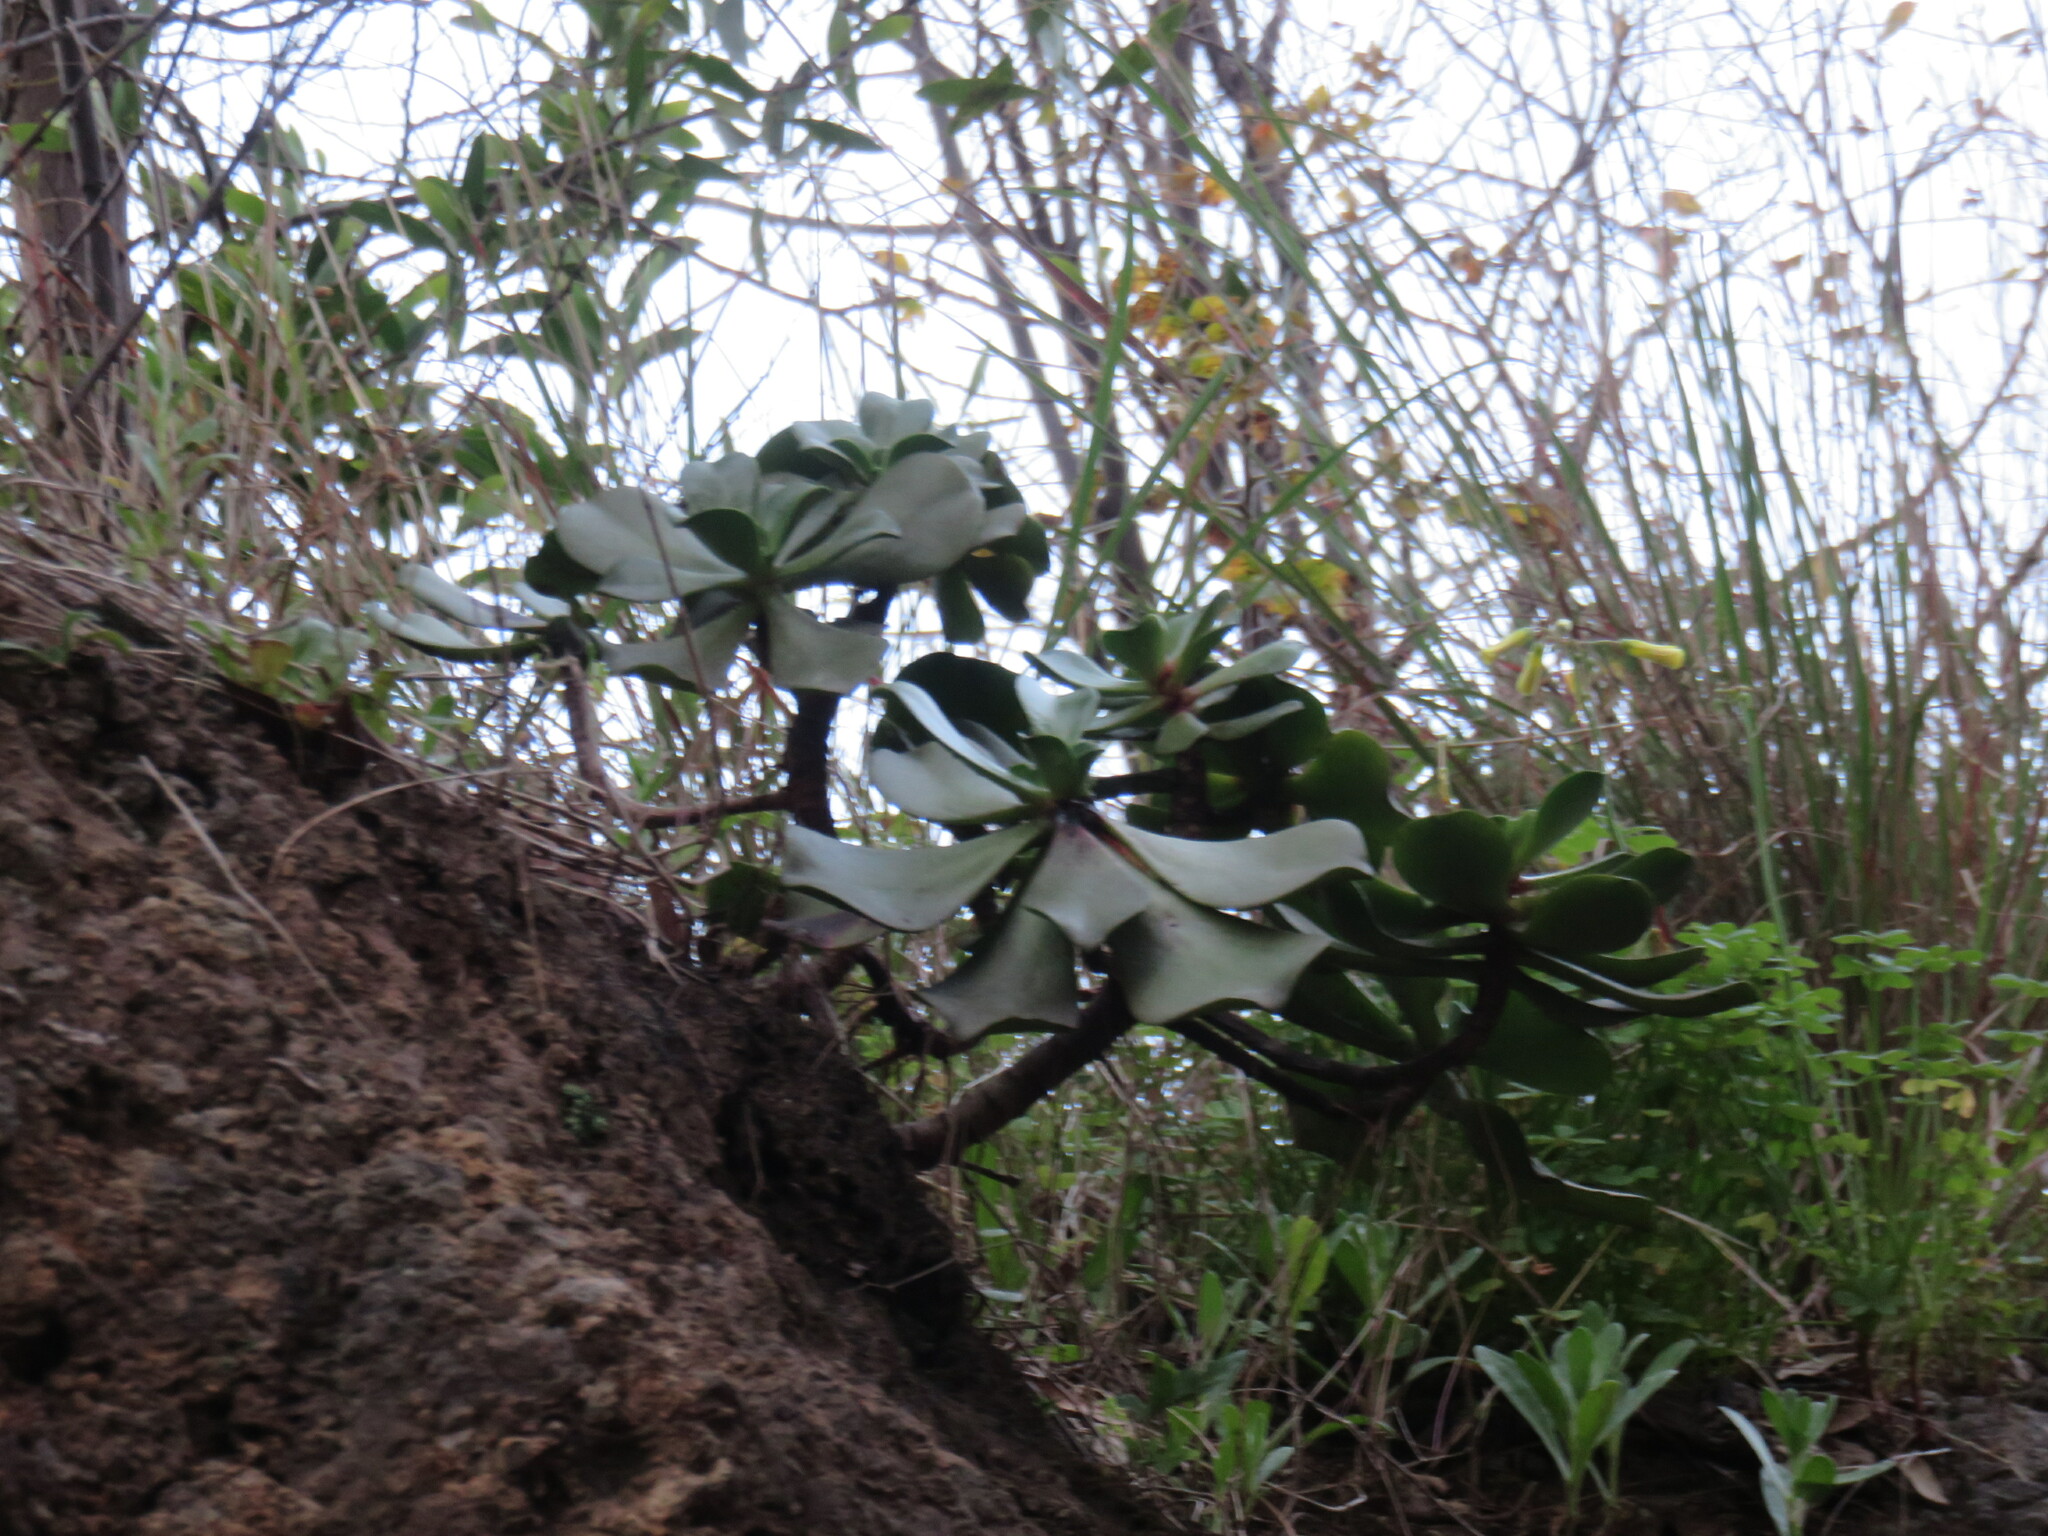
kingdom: Plantae
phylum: Tracheophyta
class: Magnoliopsida
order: Saxifragales
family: Crassulaceae
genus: Aeonium
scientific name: Aeonium glutinosum
